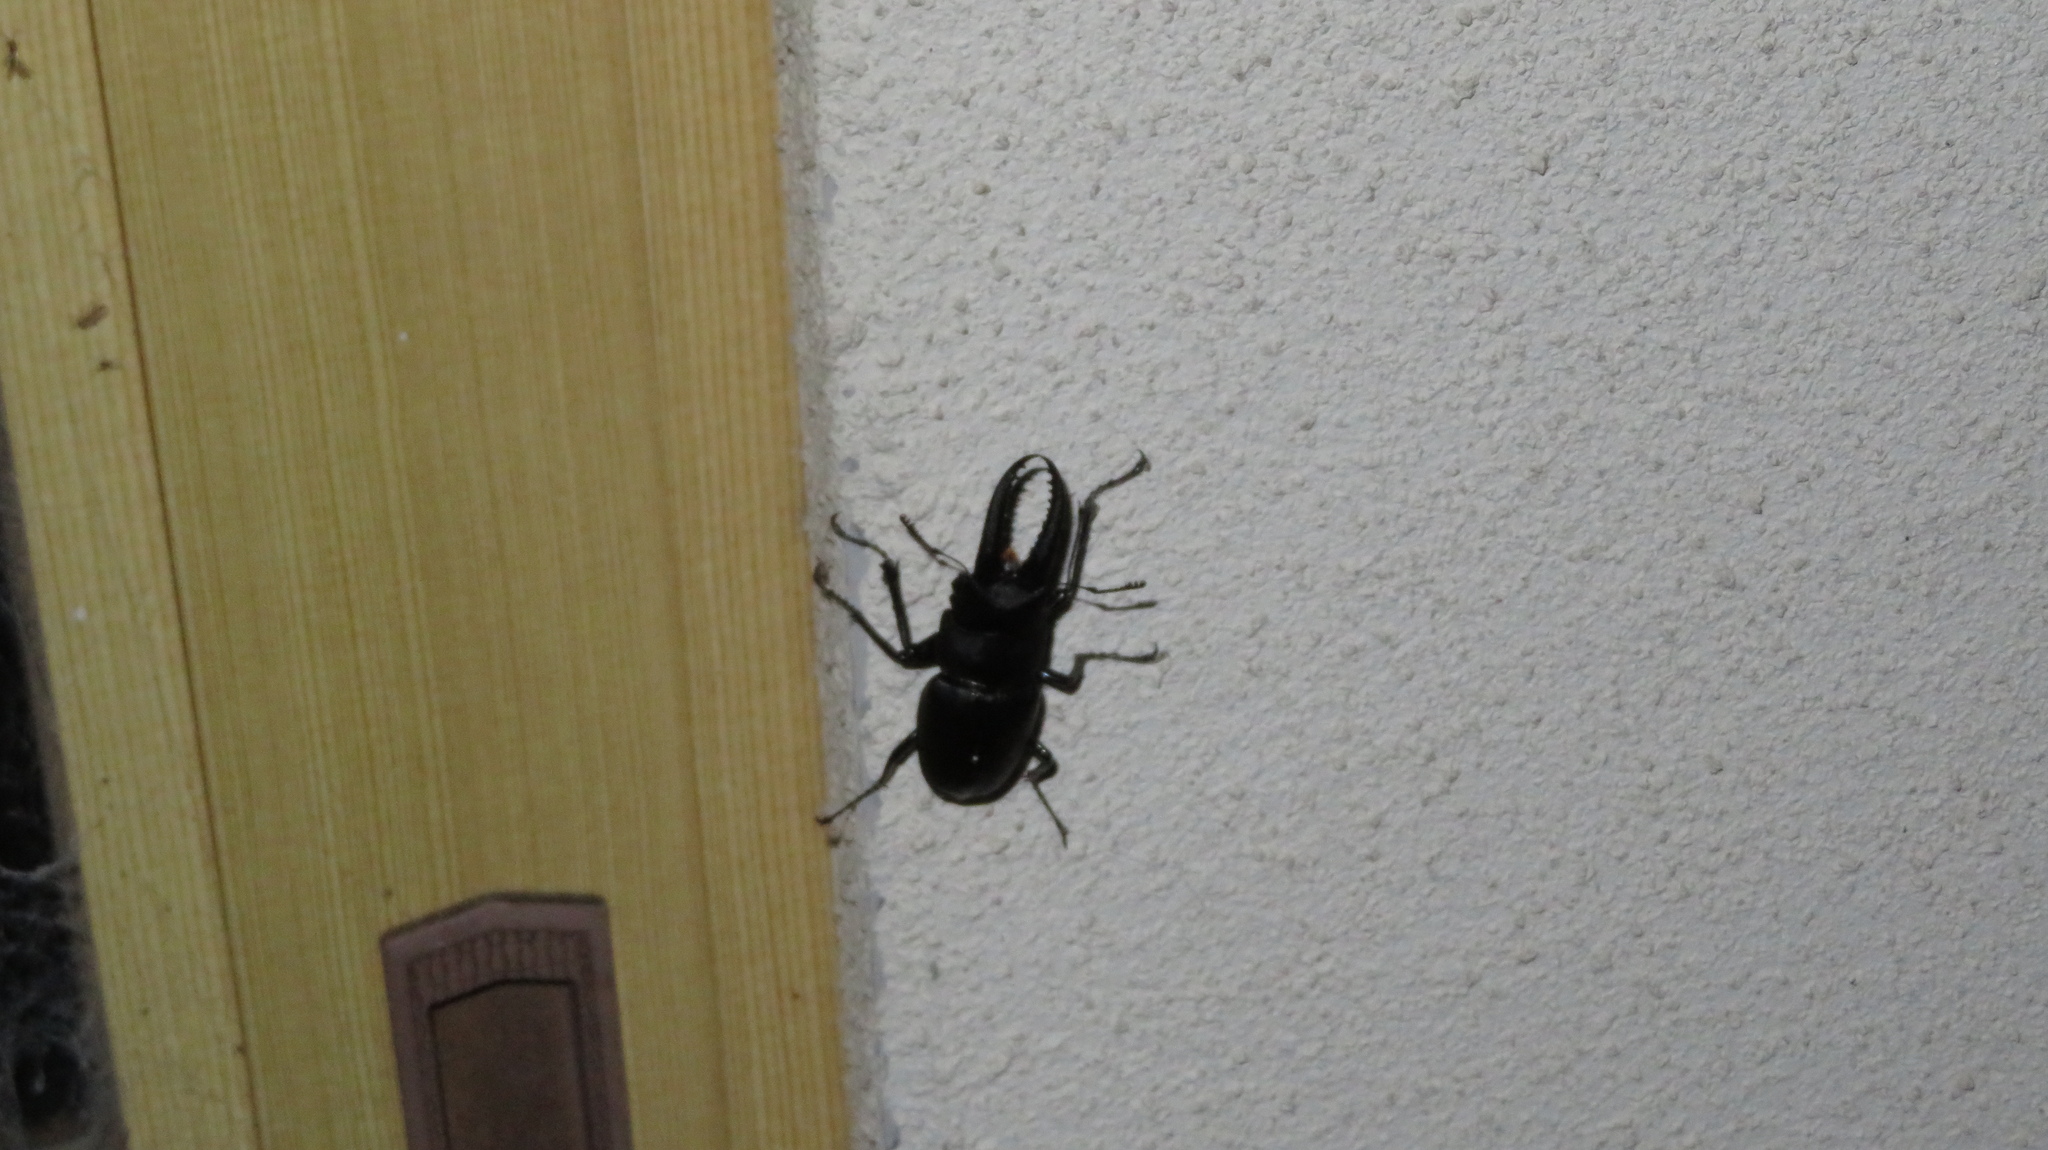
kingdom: Animalia
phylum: Arthropoda
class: Insecta
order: Coleoptera
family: Lucanidae
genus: Prosopocoilus
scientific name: Prosopocoilus inclinatus
